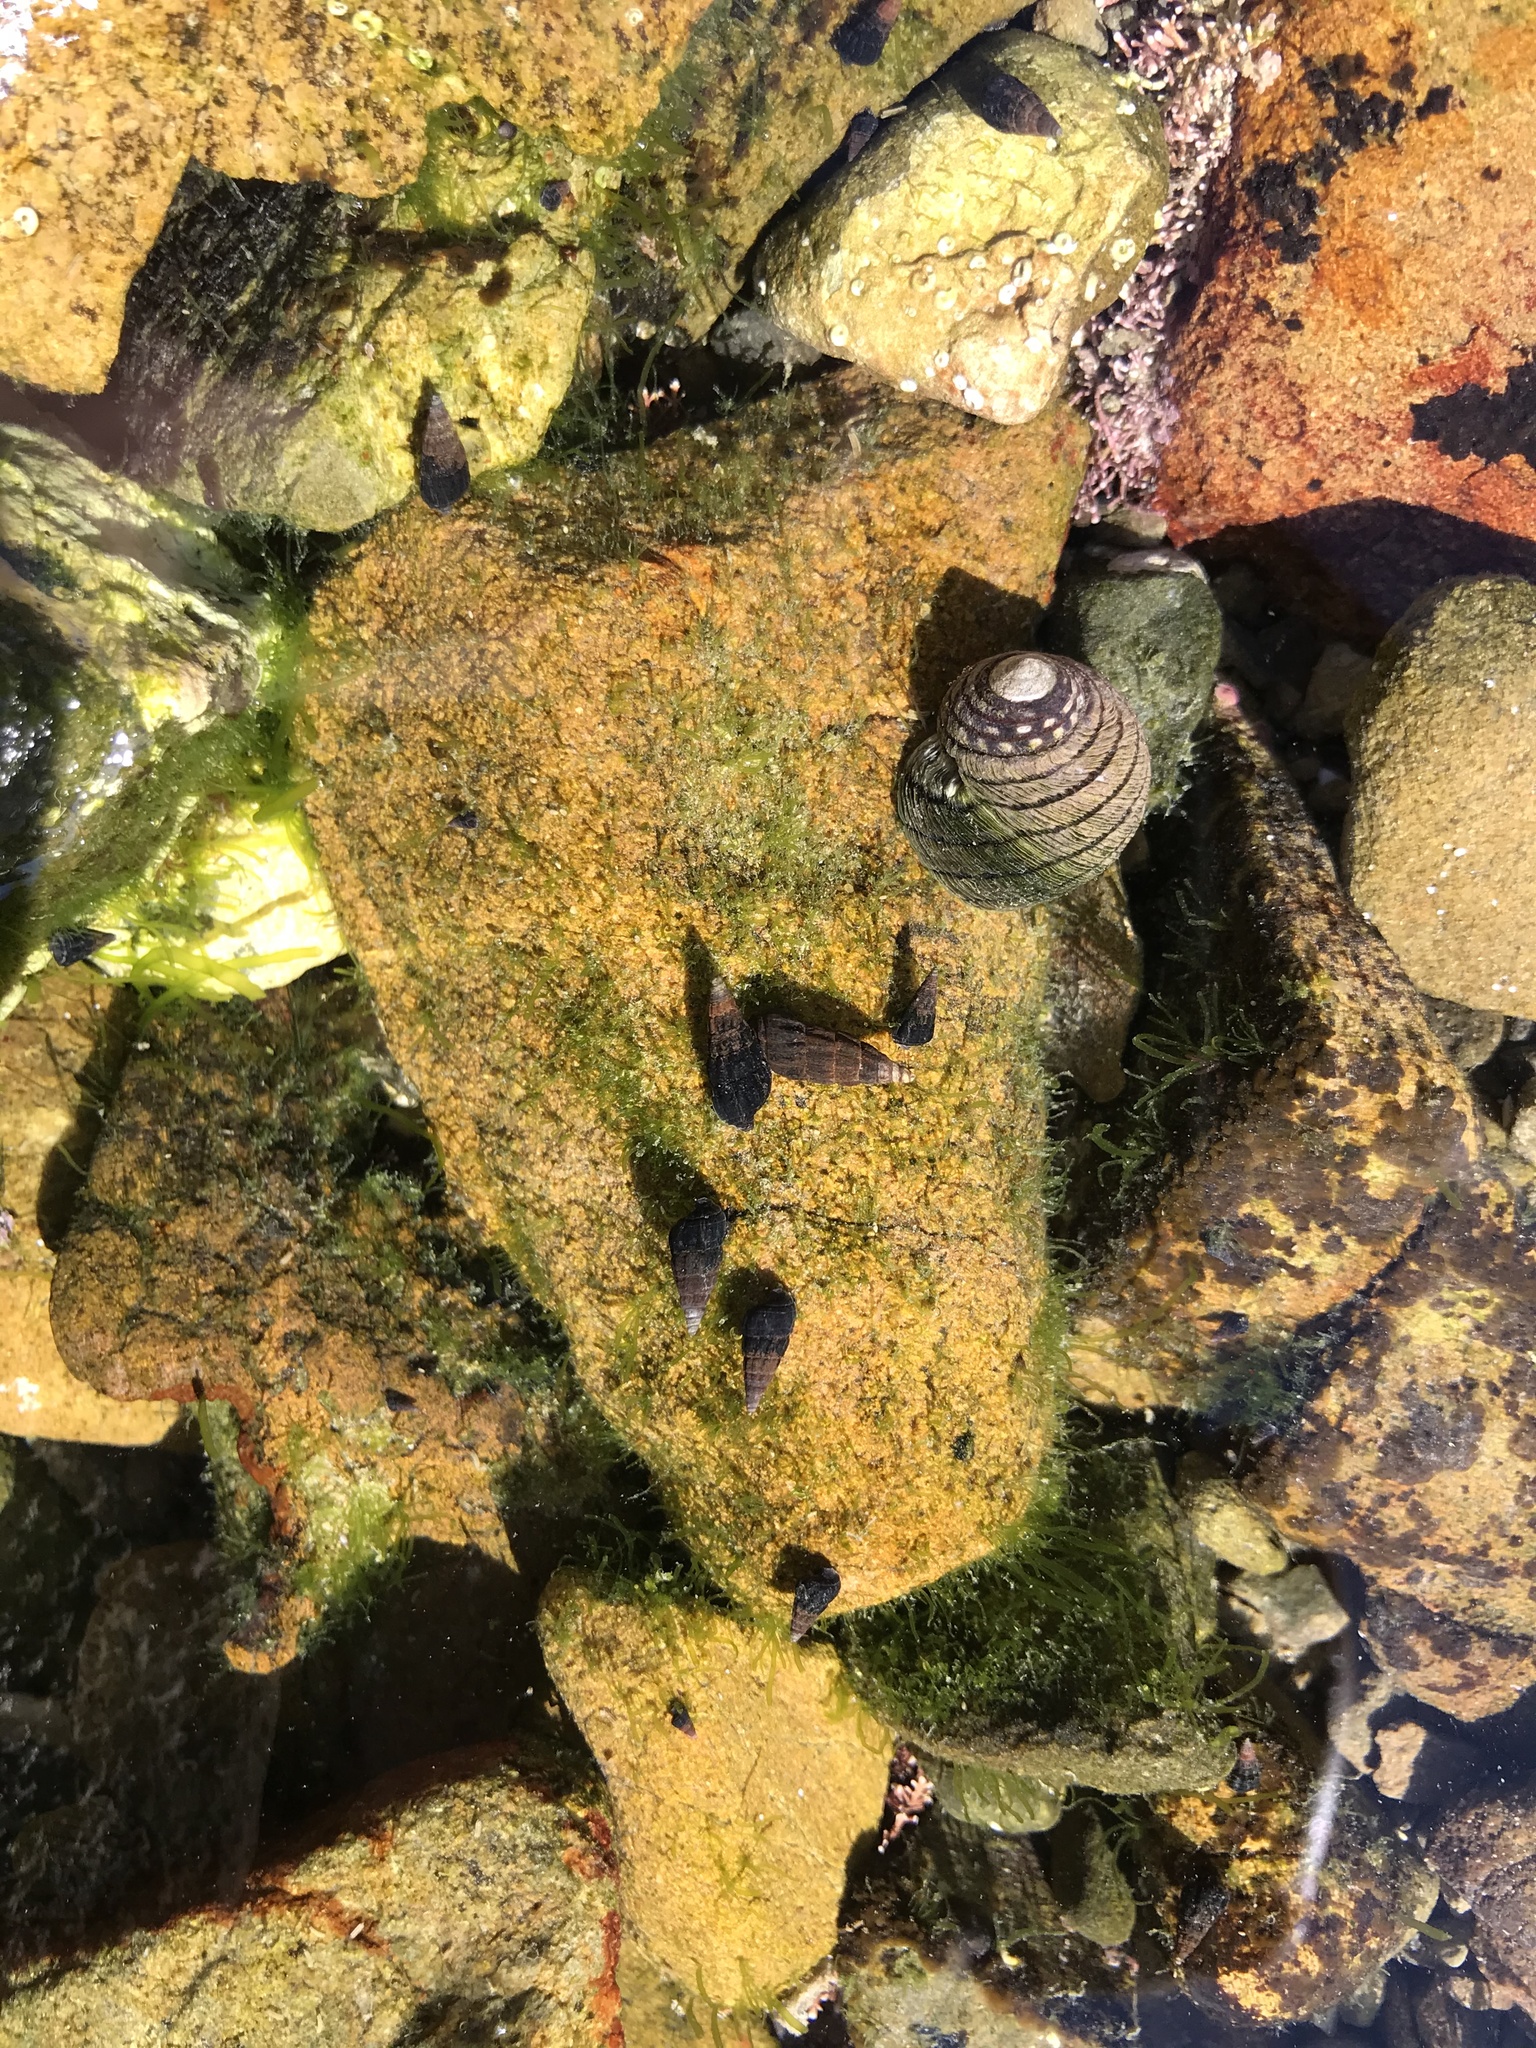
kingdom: Animalia
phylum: Mollusca
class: Gastropoda
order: Trochida
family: Trochidae
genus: Diloma
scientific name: Diloma aethiops
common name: Scorched monodont
